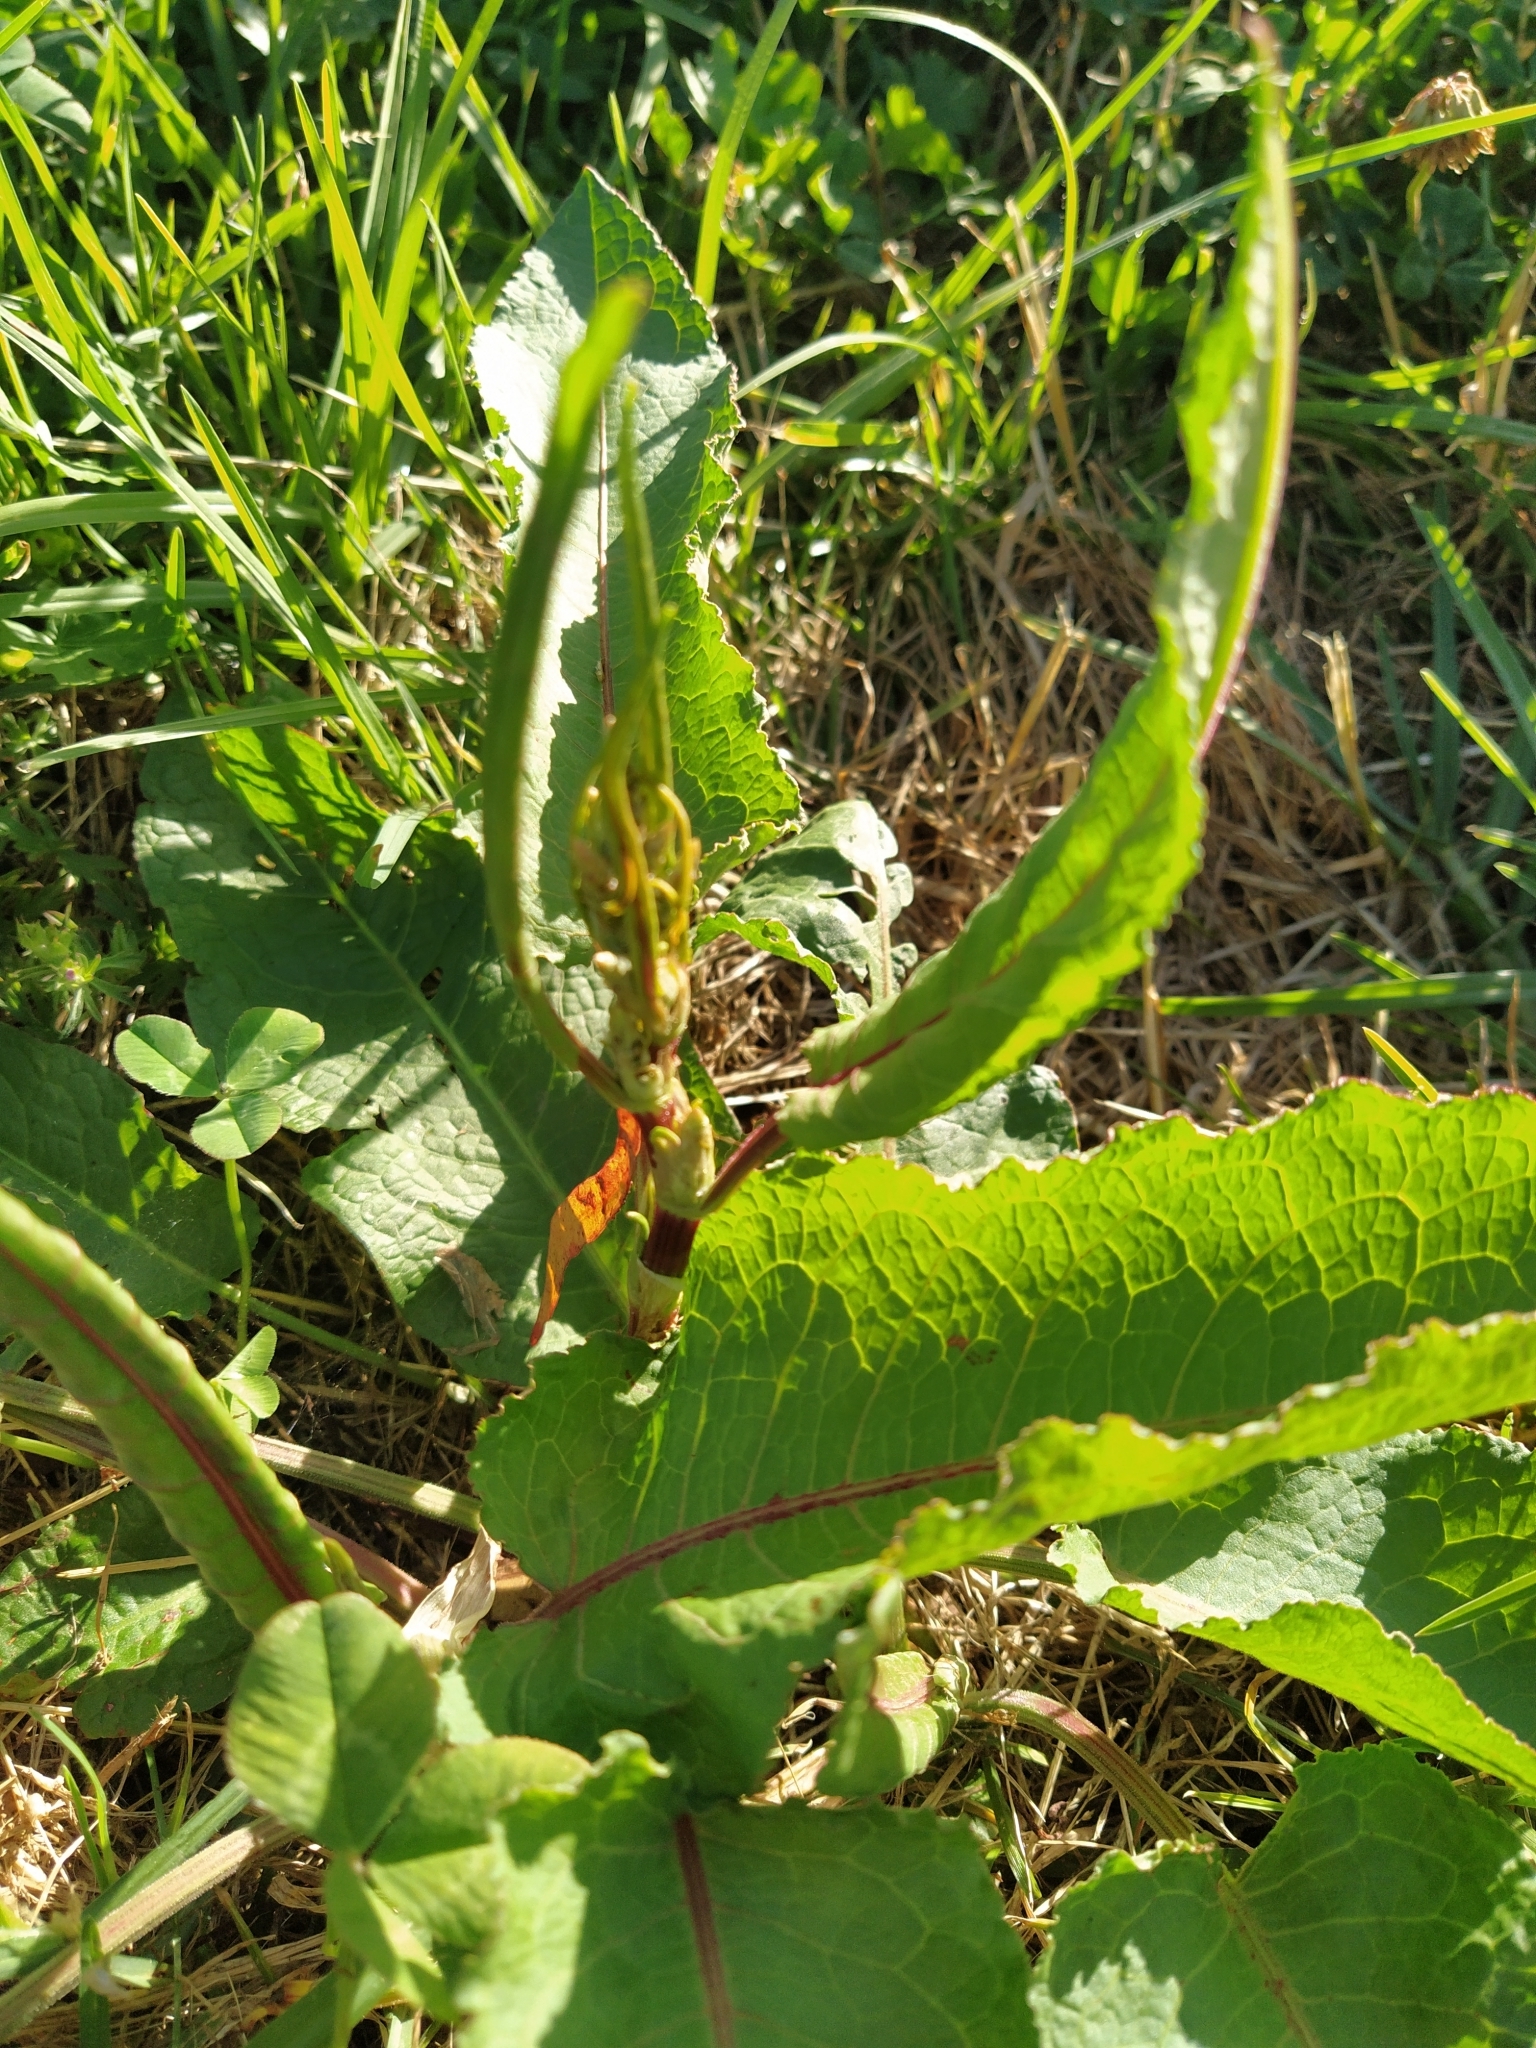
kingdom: Plantae
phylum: Tracheophyta
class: Magnoliopsida
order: Caryophyllales
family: Polygonaceae
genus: Rumex
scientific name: Rumex obtusifolius
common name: Bitter dock
